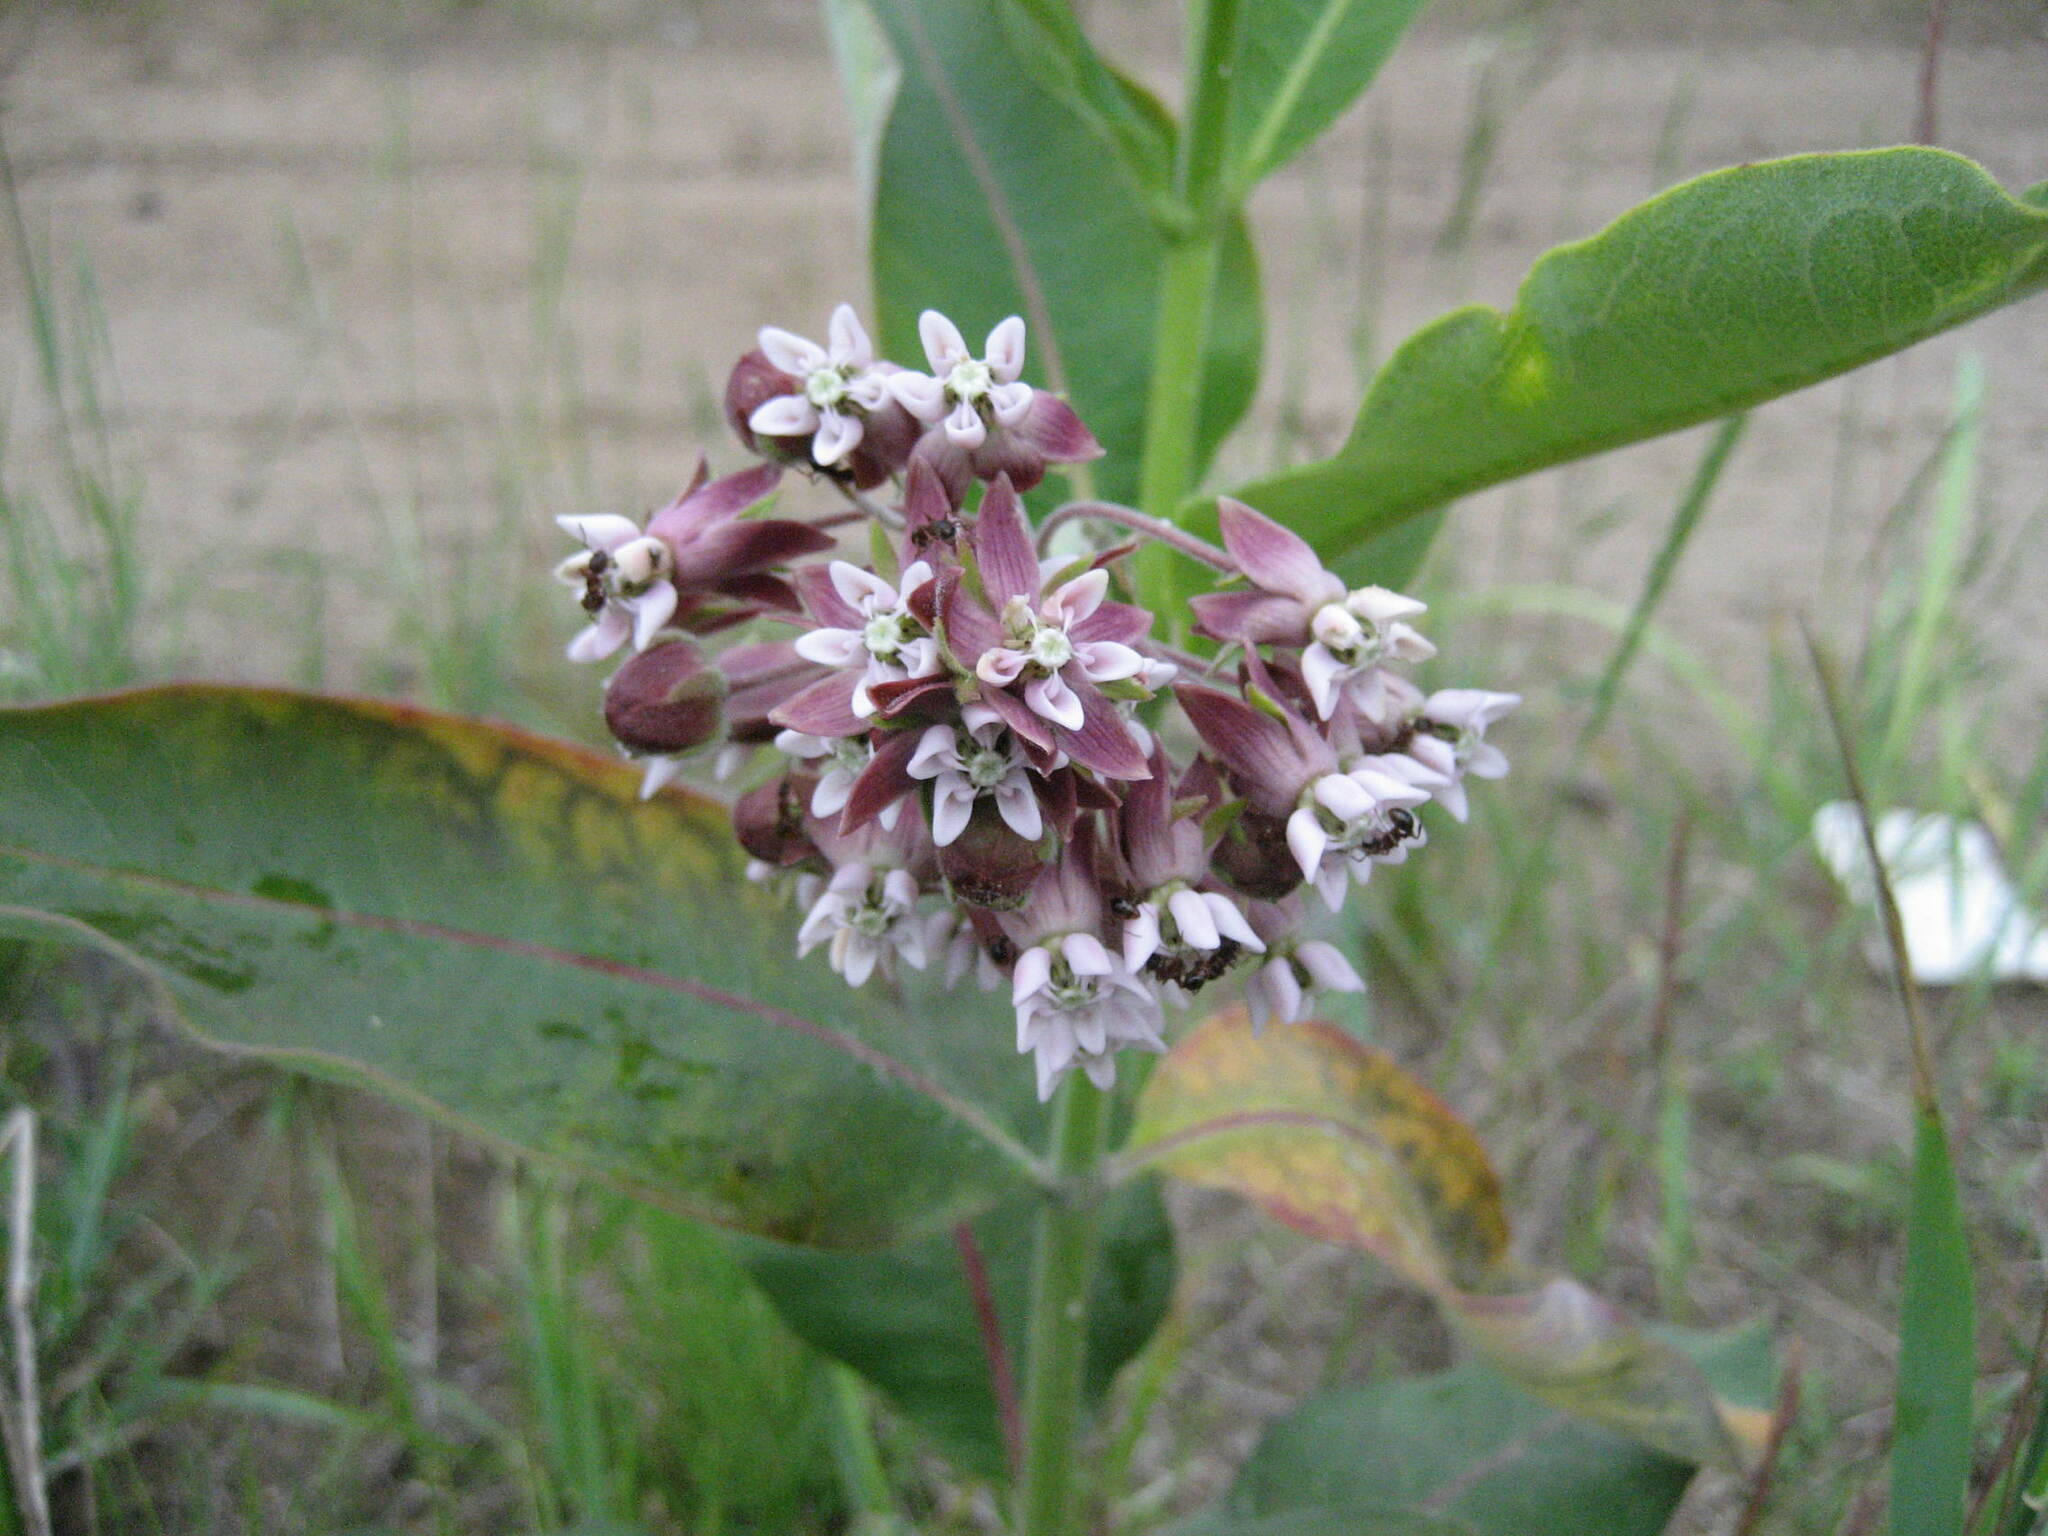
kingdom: Plantae
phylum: Tracheophyta
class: Magnoliopsida
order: Gentianales
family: Apocynaceae
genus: Asclepias
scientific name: Asclepias syriaca
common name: Common milkweed
